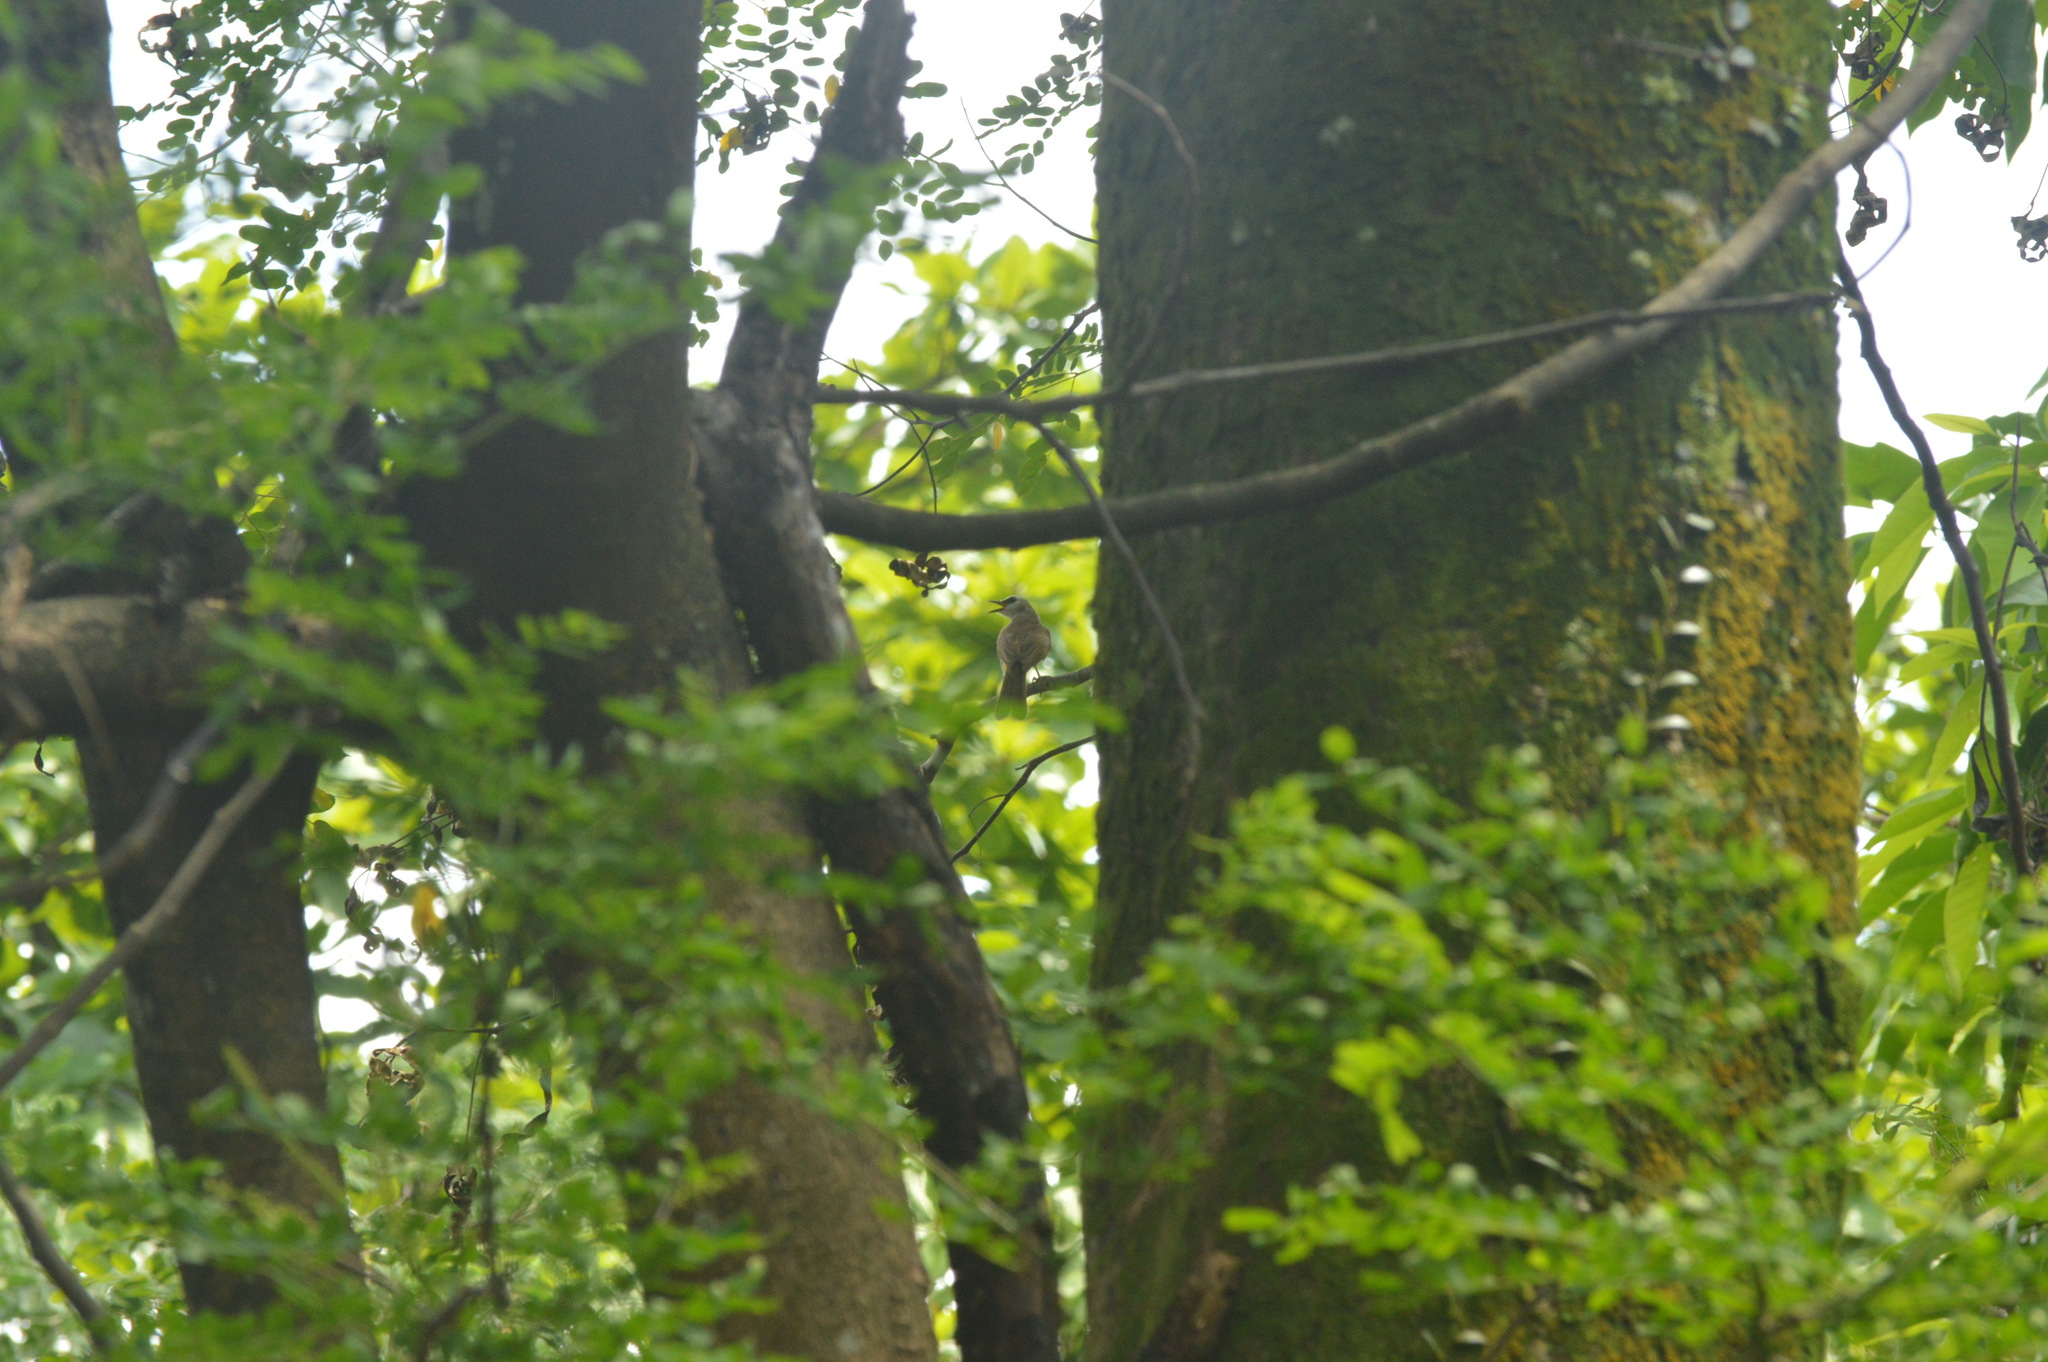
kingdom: Animalia
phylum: Chordata
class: Aves
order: Passeriformes
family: Pycnonotidae
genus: Pycnonotus
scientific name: Pycnonotus goiavier
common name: Yellow-vented bulbul
